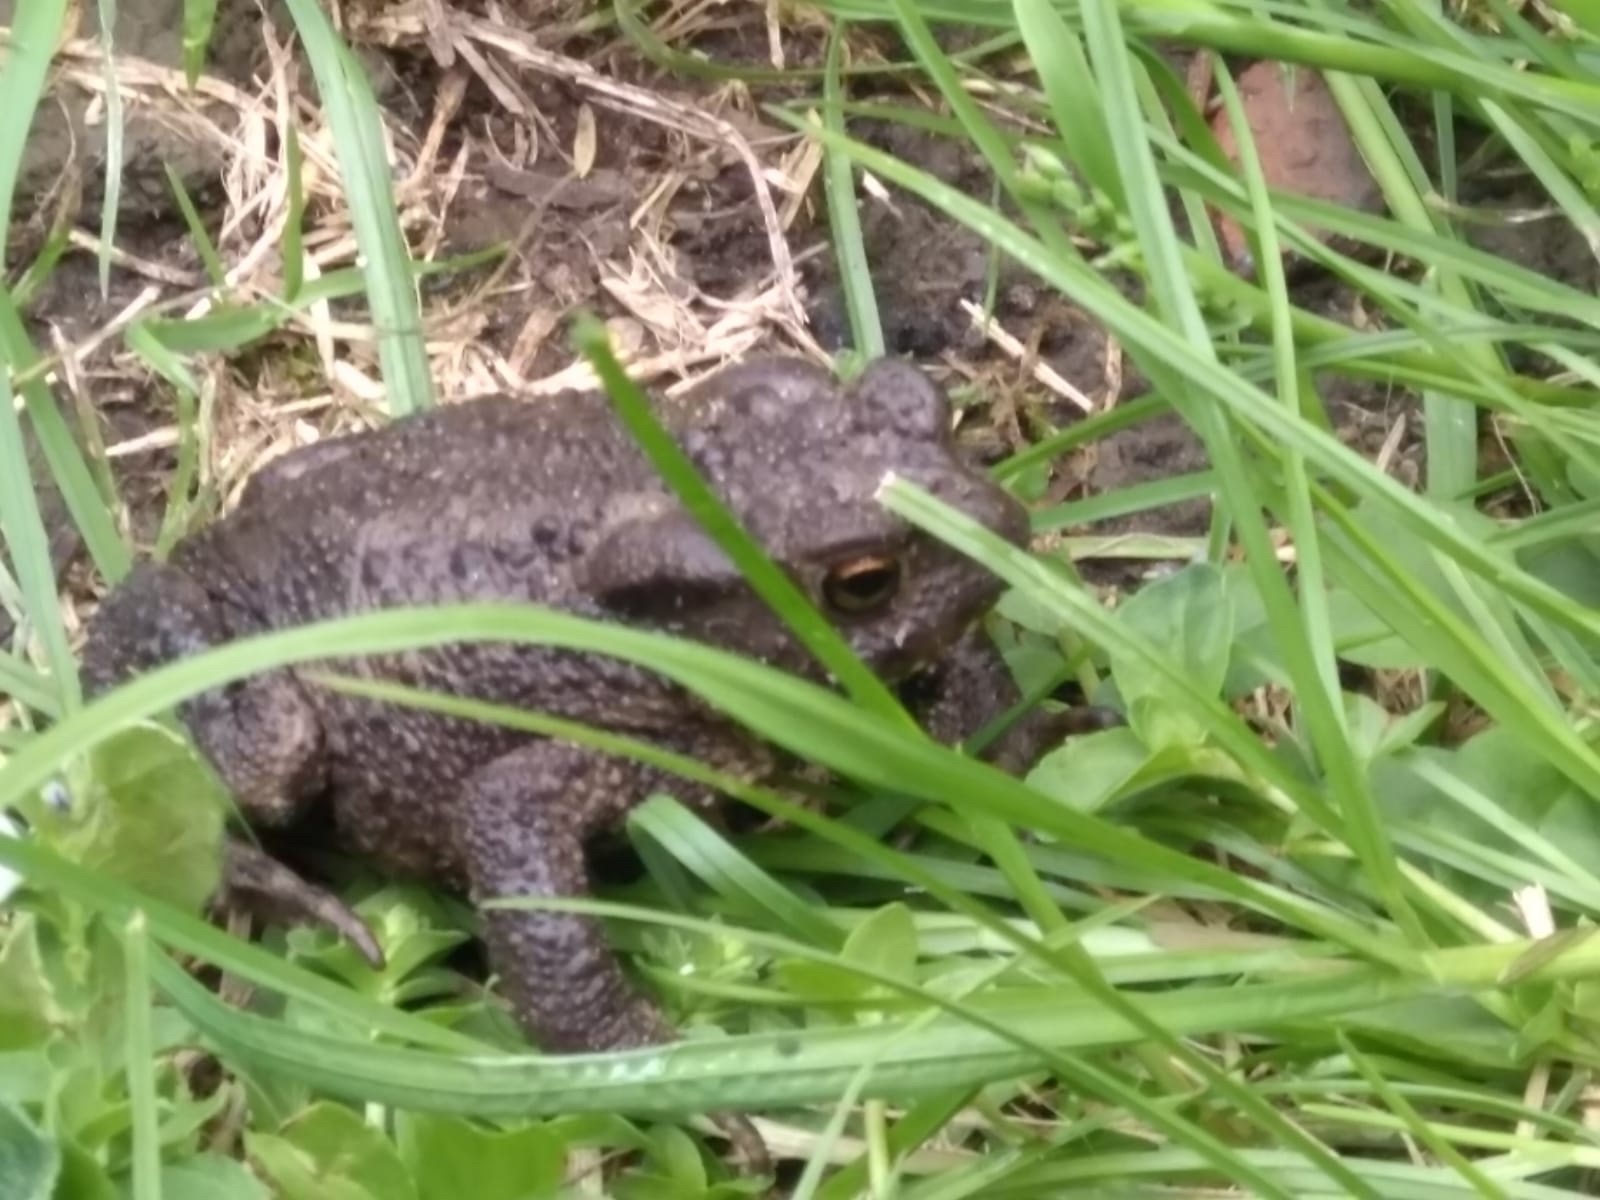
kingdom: Animalia
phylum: Chordata
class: Amphibia
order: Anura
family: Bufonidae
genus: Bufo
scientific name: Bufo bufo
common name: Common toad
